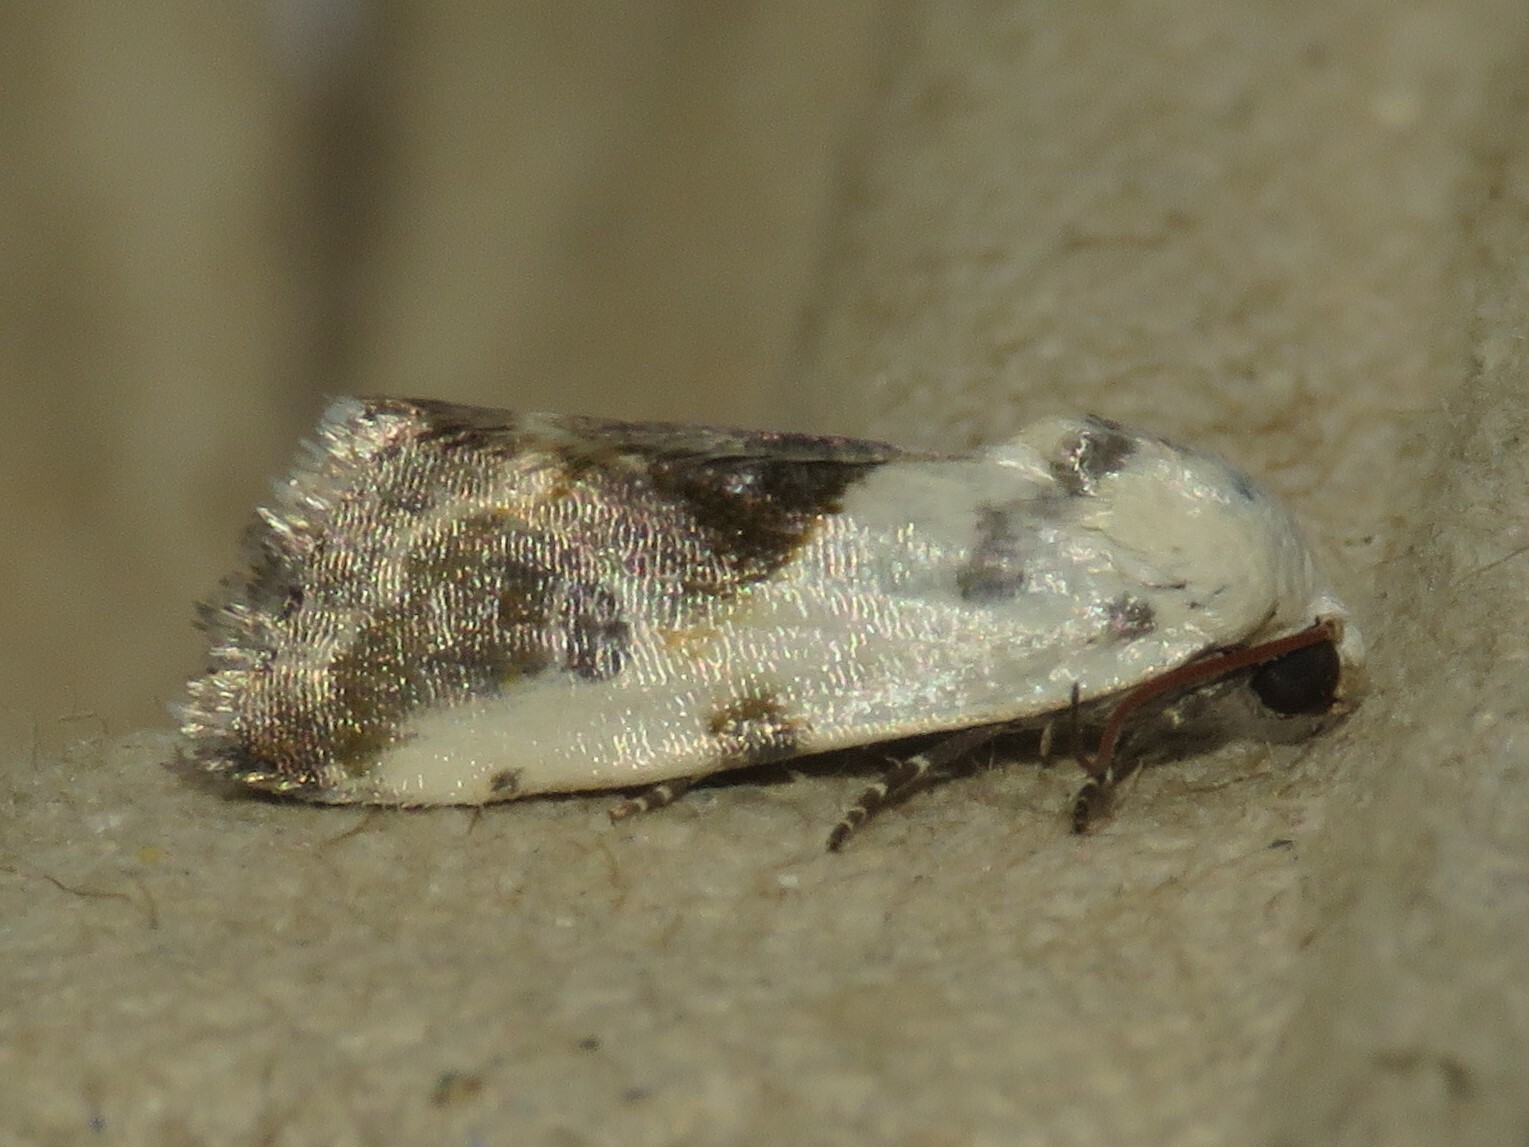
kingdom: Animalia
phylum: Arthropoda
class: Insecta
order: Lepidoptera
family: Noctuidae
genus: Acontia
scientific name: Acontia candefacta
